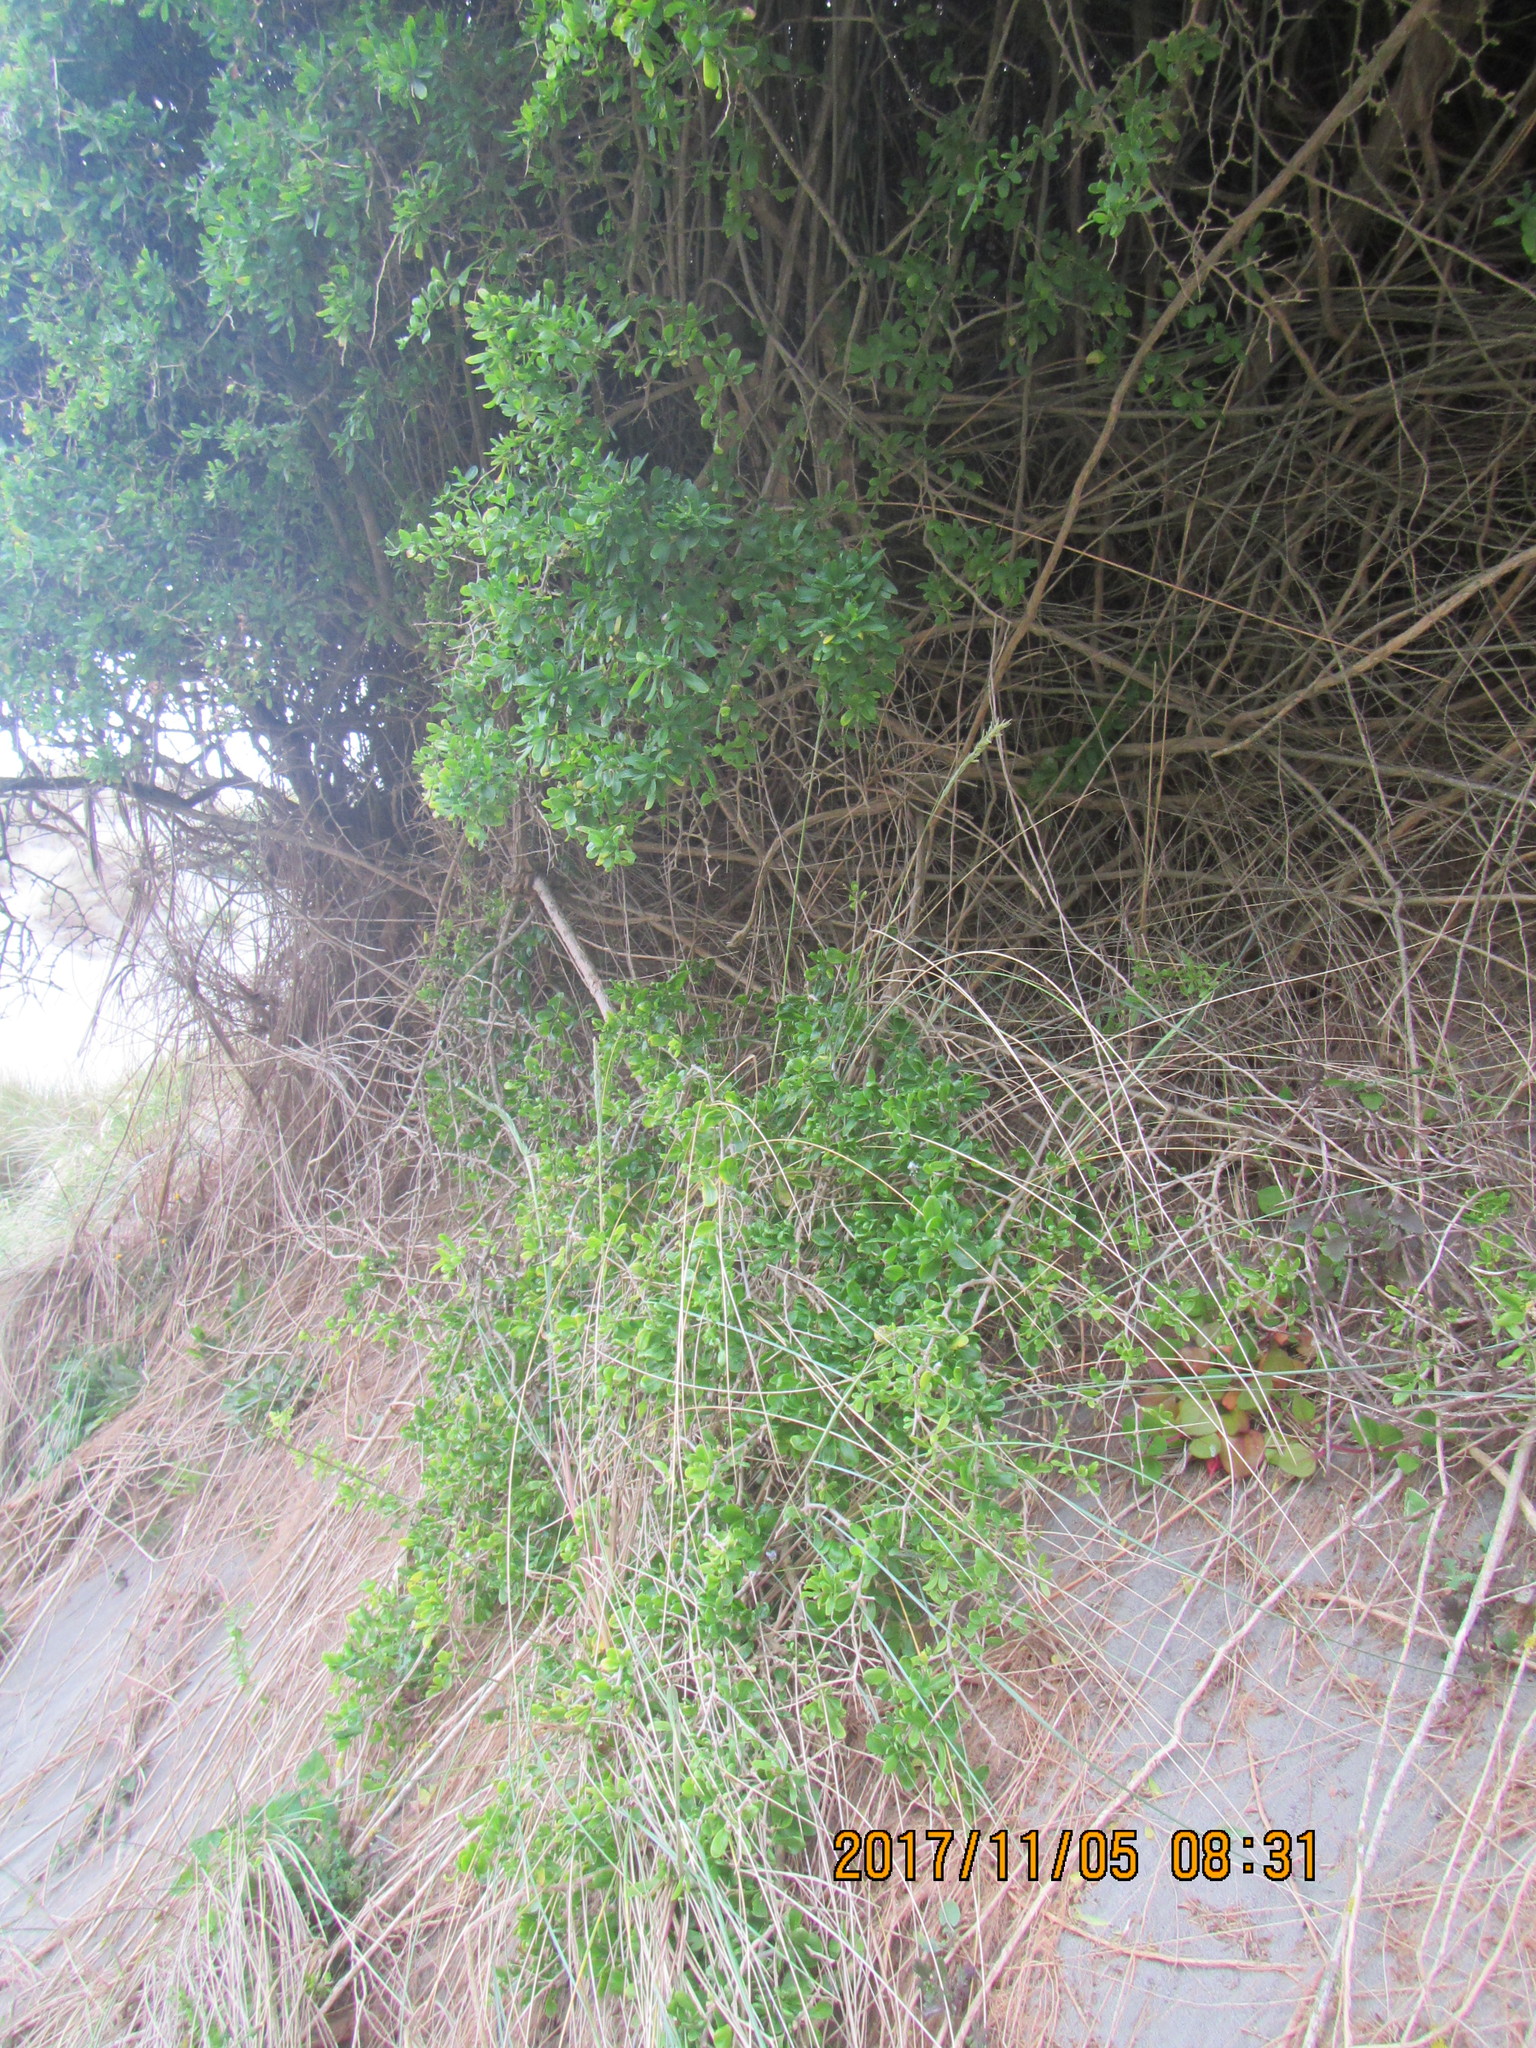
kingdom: Plantae
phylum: Tracheophyta
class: Magnoliopsida
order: Solanales
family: Solanaceae
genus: Lycium
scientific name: Lycium ferocissimum
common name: African boxthorn
